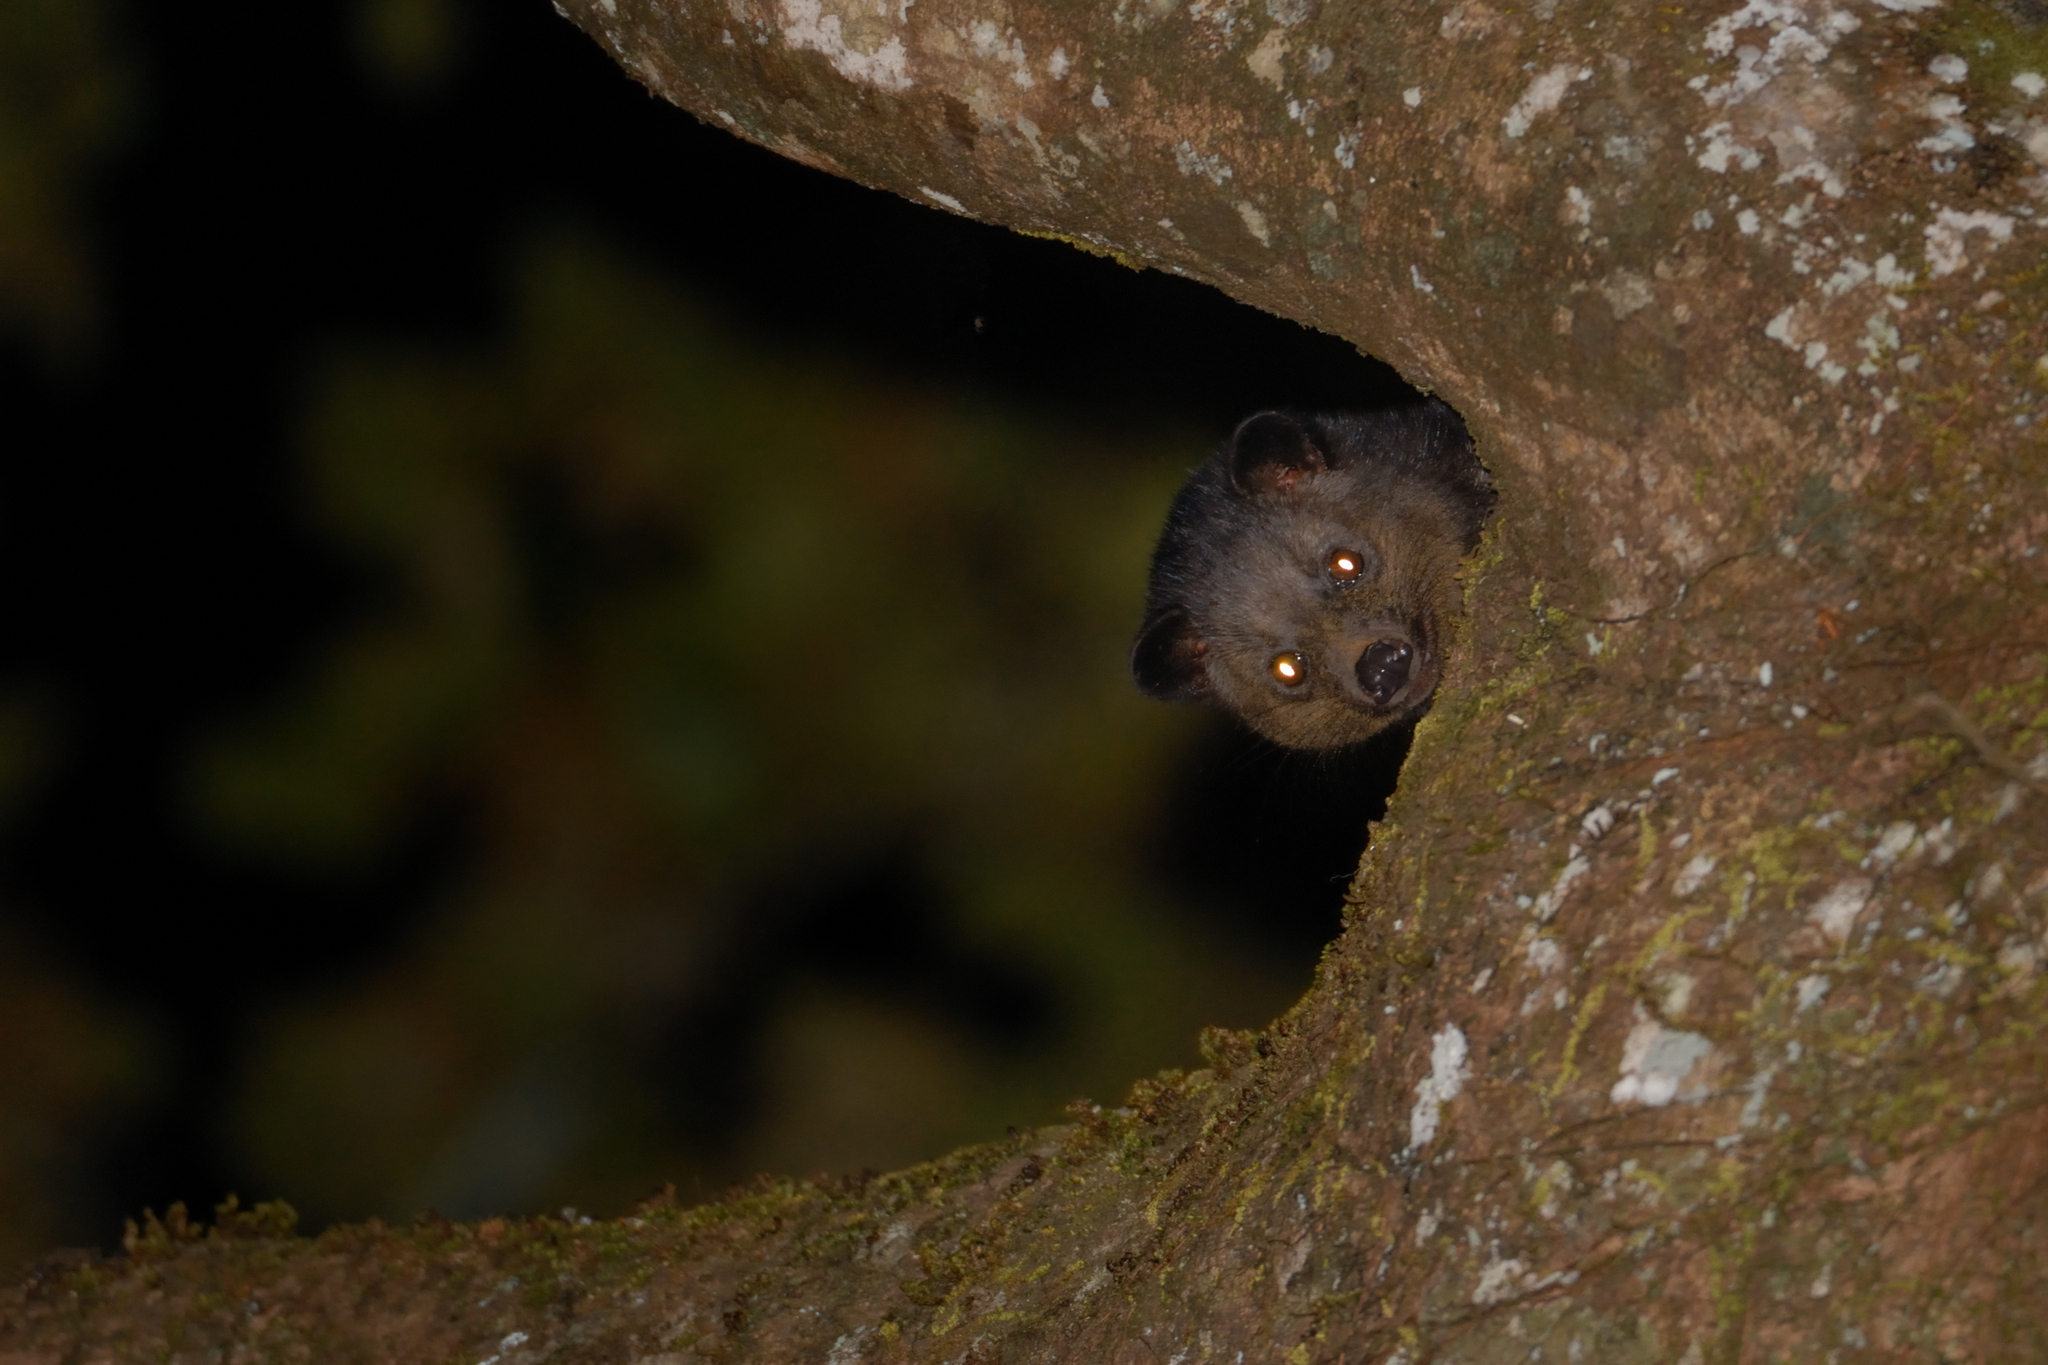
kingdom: Animalia
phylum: Chordata
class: Mammalia
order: Carnivora
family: Viverridae
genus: Paradoxurus
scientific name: Paradoxurus jerdoni
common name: Jerdon's palm civet
